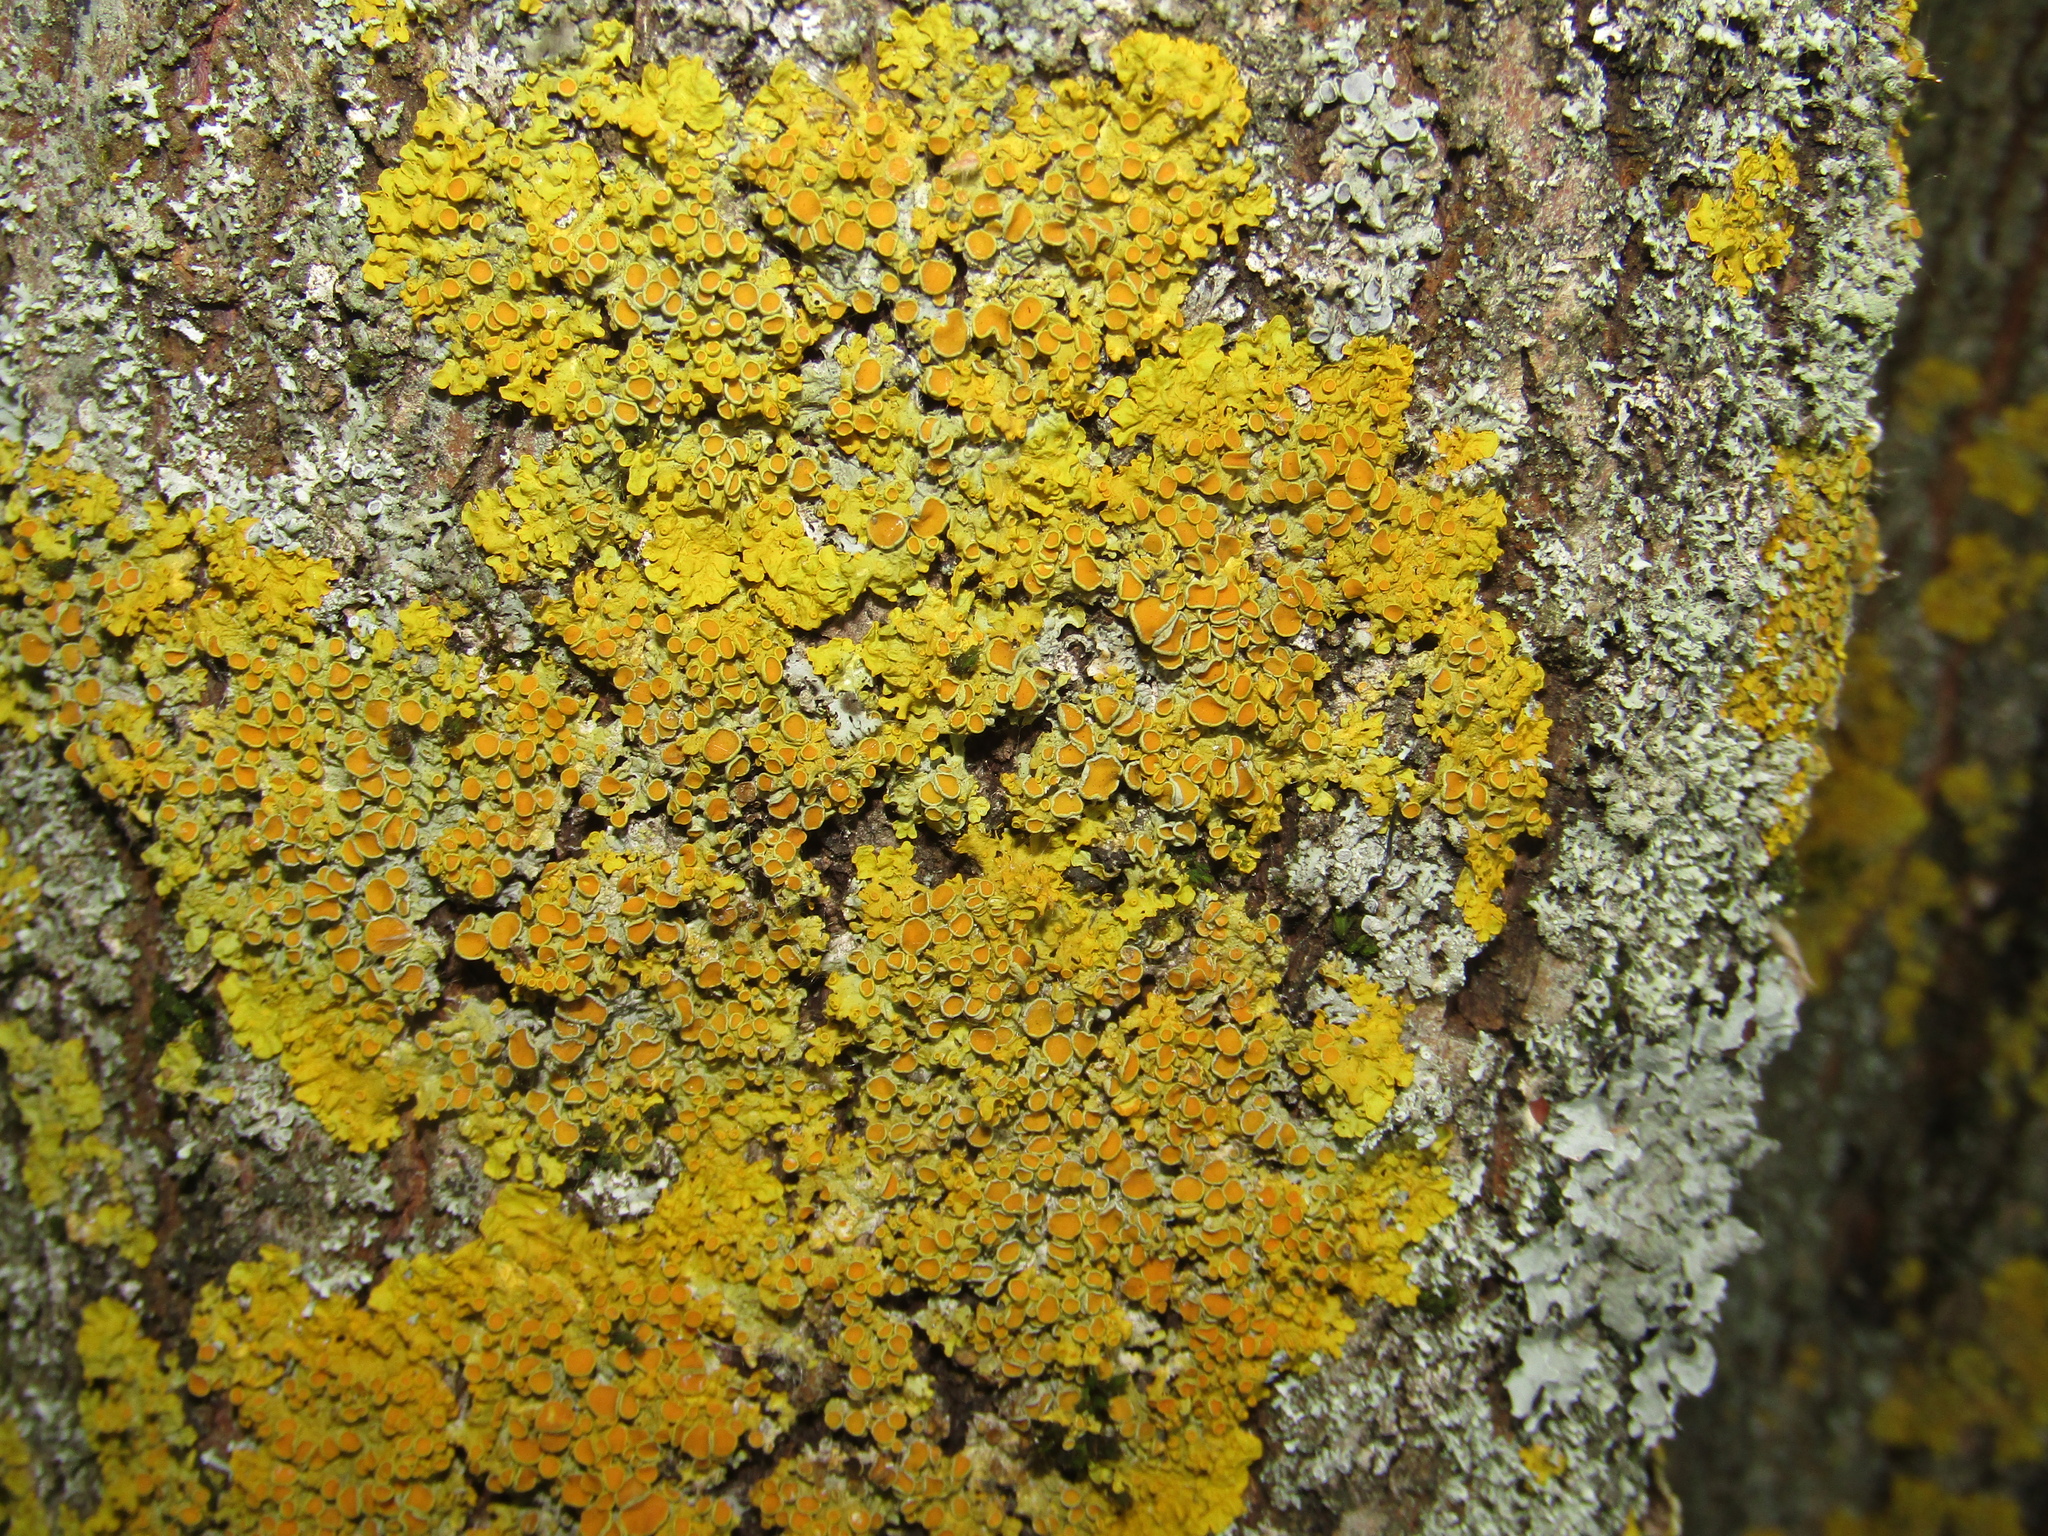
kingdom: Fungi
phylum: Ascomycota
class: Lecanoromycetes
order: Teloschistales
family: Teloschistaceae
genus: Xanthoria
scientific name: Xanthoria parietina
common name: Common orange lichen
